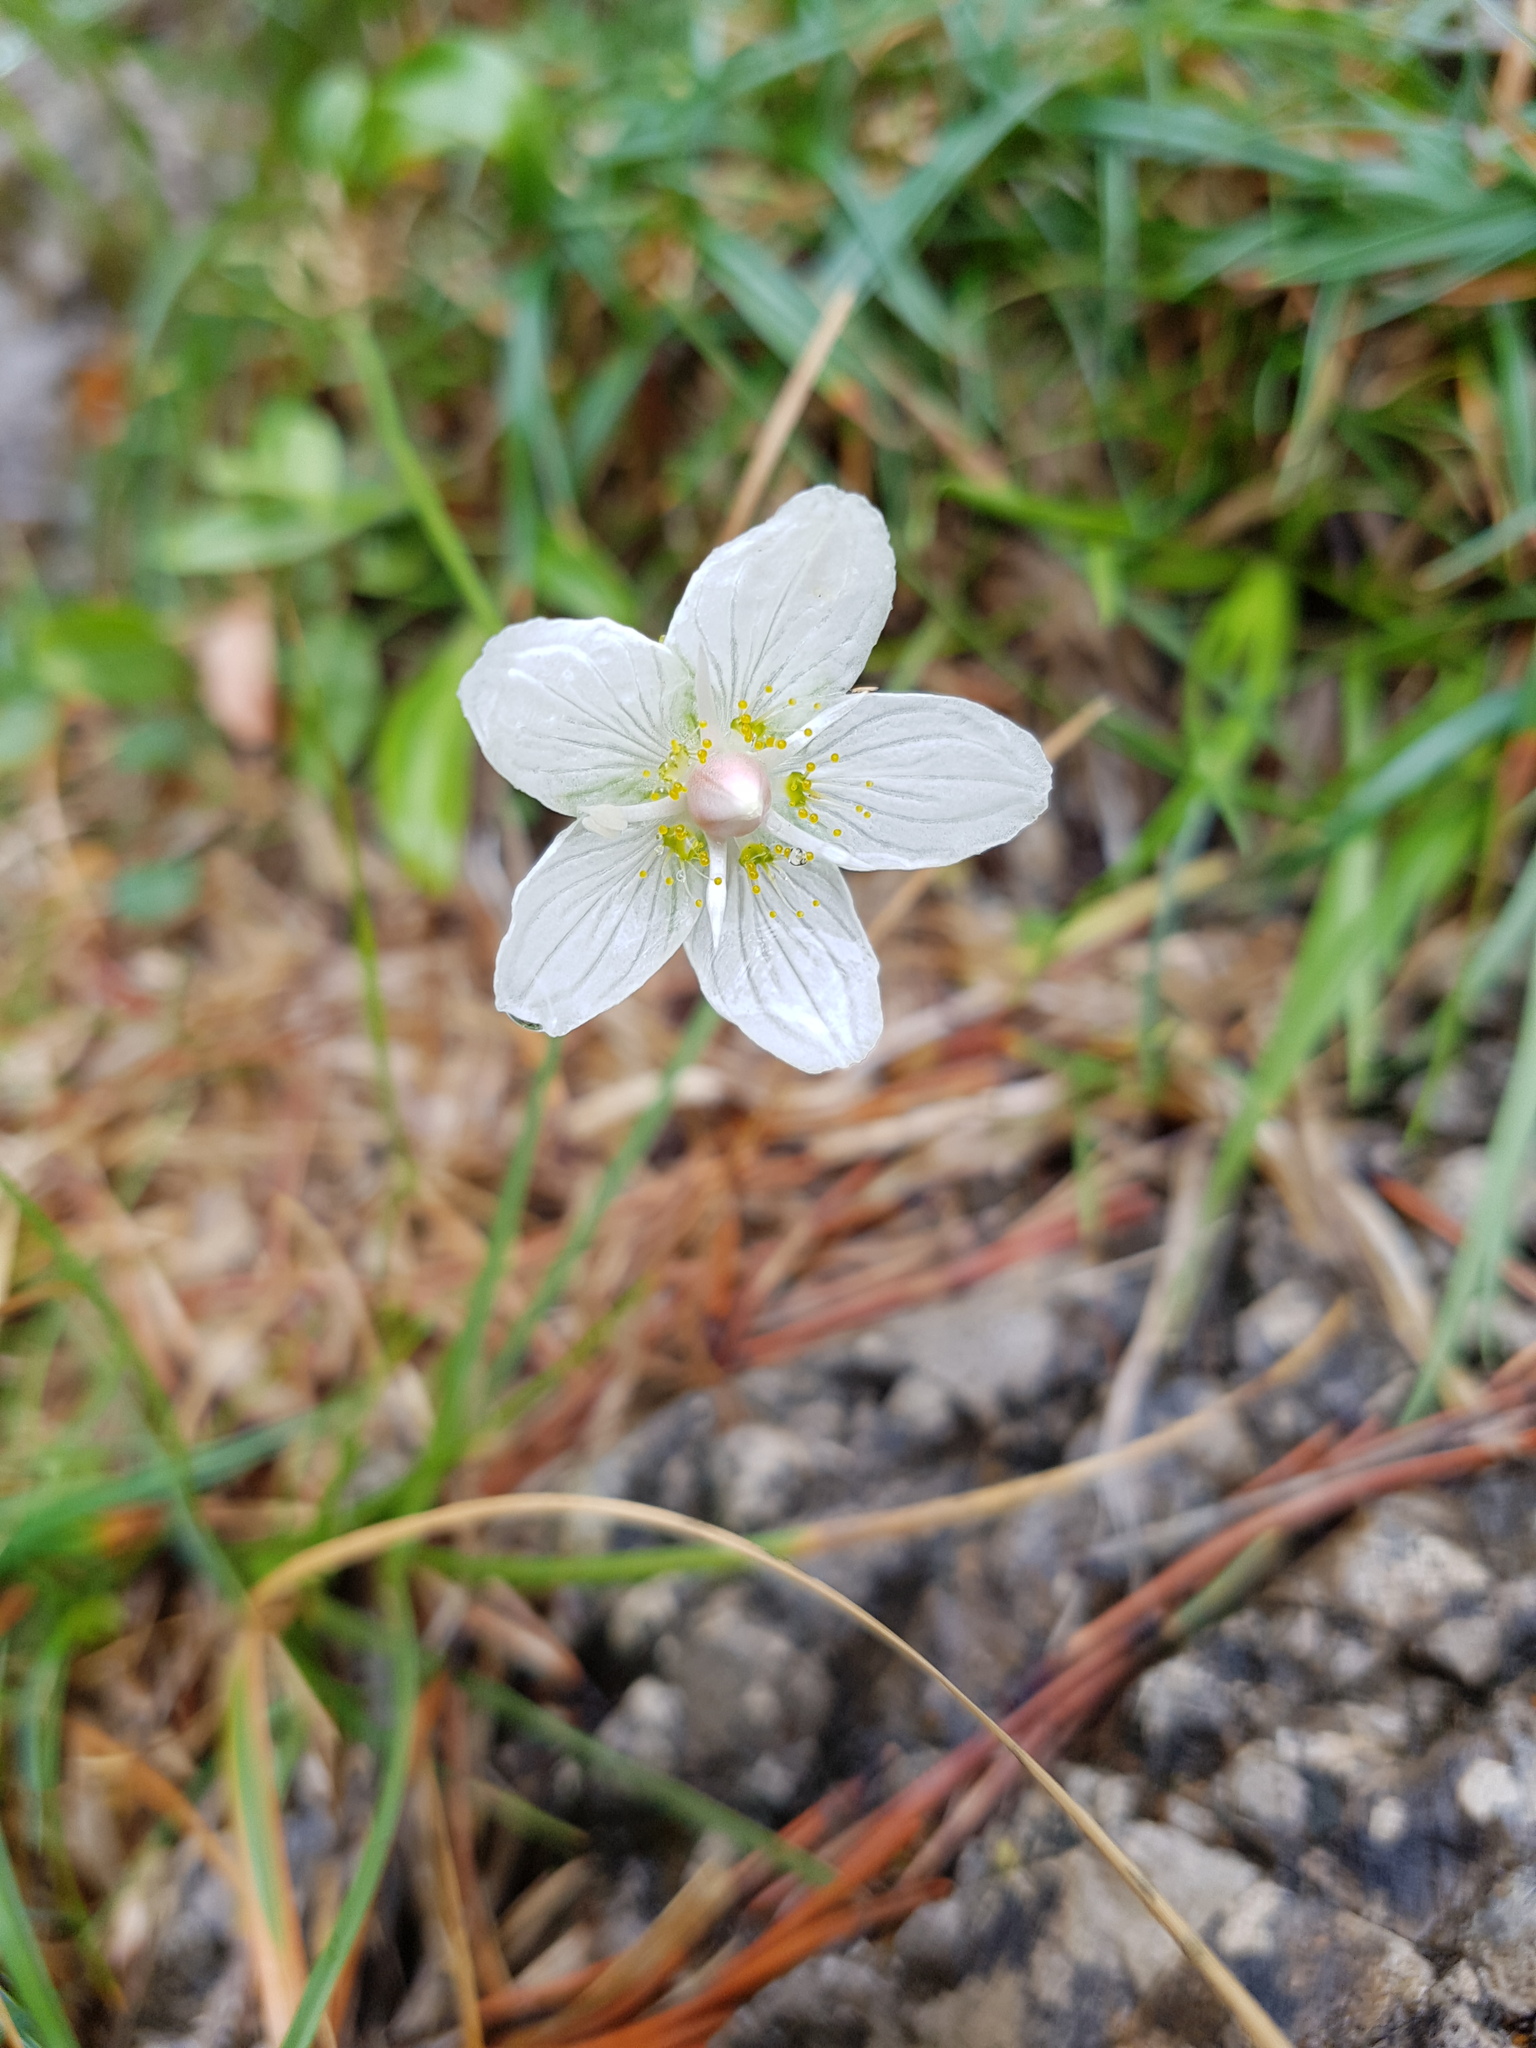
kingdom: Plantae
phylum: Tracheophyta
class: Magnoliopsida
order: Celastrales
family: Parnassiaceae
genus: Parnassia
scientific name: Parnassia palustris
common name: Grass-of-parnassus
